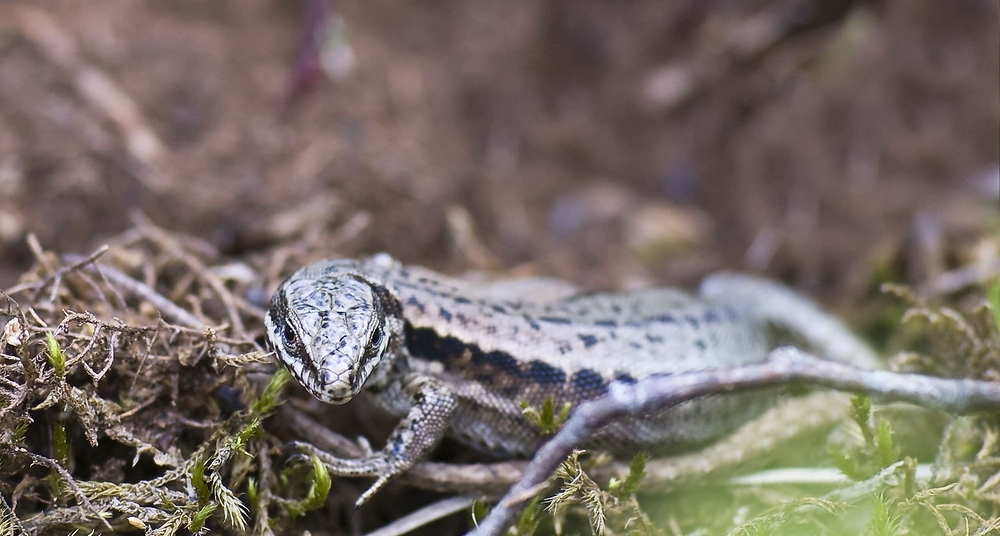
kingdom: Animalia
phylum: Chordata
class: Squamata
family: Lacertidae
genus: Podarcis
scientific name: Podarcis muralis
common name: Common wall lizard
